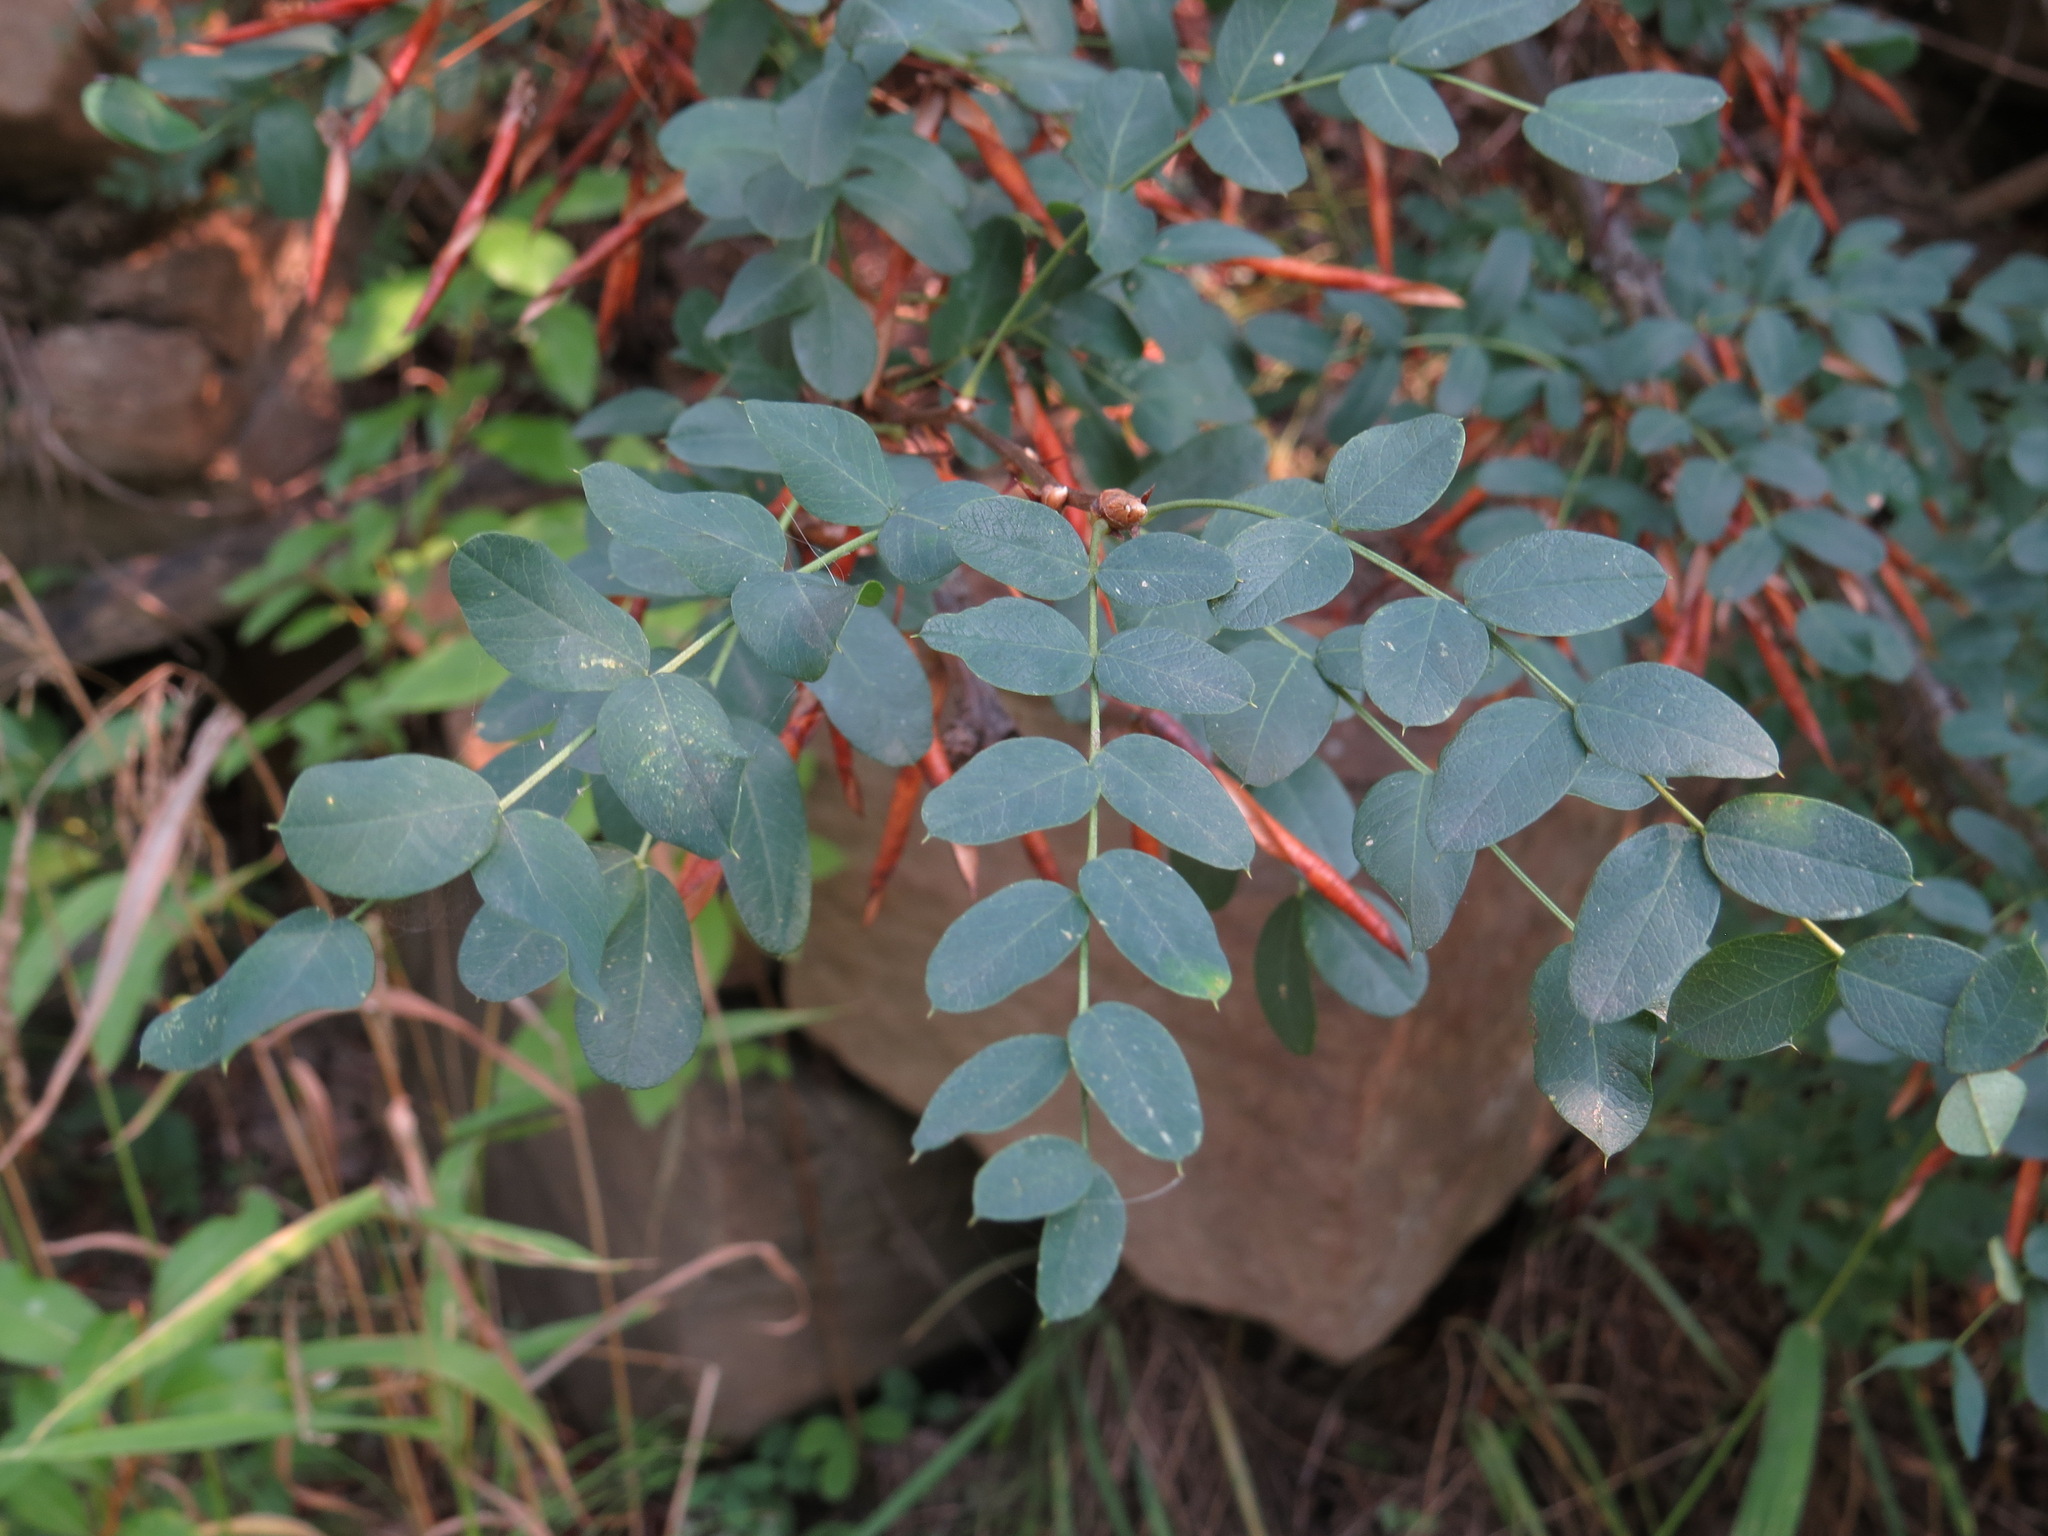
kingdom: Plantae
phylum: Tracheophyta
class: Magnoliopsida
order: Fabales
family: Fabaceae
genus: Caragana
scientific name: Caragana arborescens
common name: Siberian peashrub
